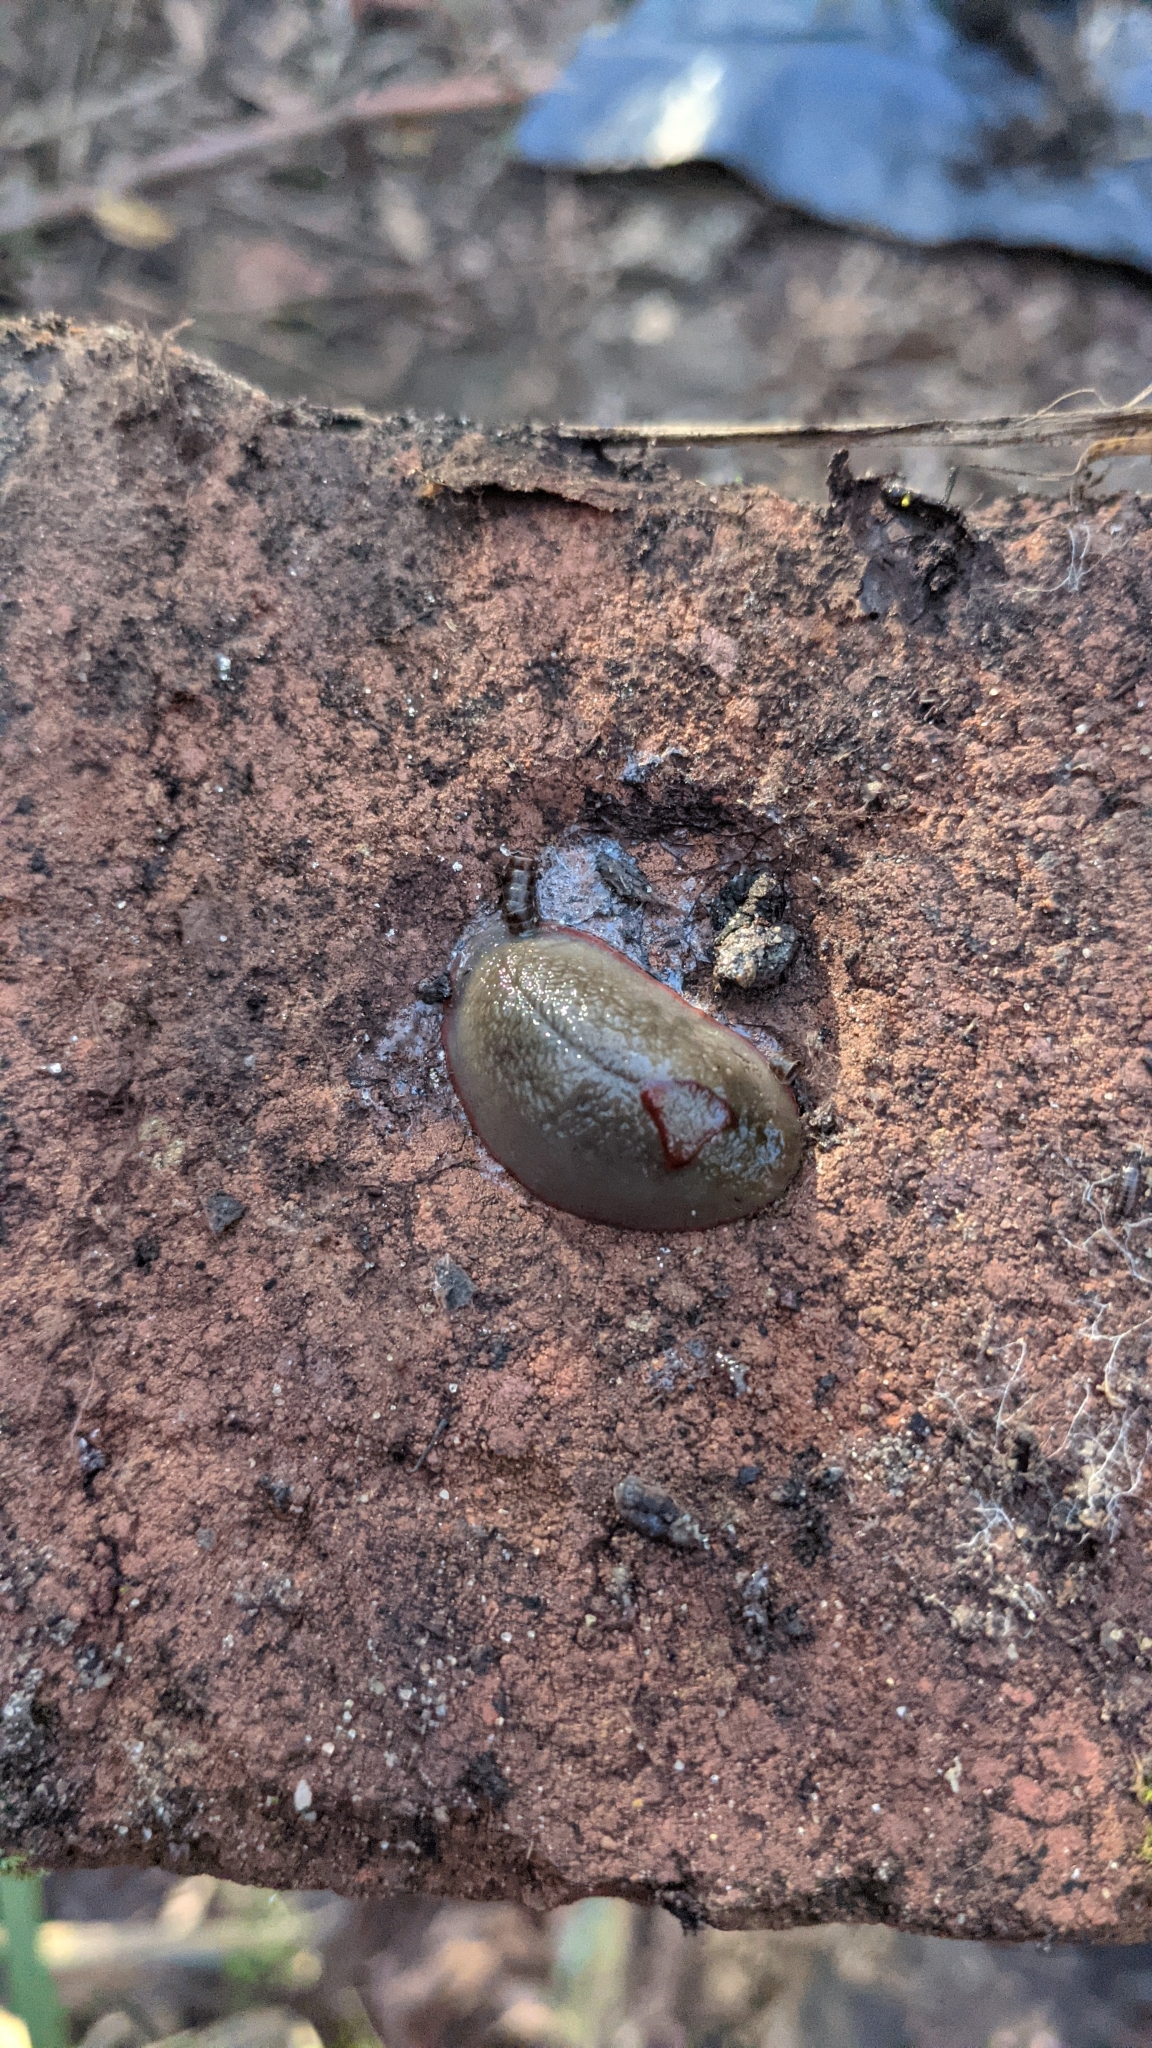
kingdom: Animalia
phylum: Mollusca
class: Gastropoda
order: Stylommatophora
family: Athoracophoridae
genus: Triboniophorus
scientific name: Triboniophorus graeffei
